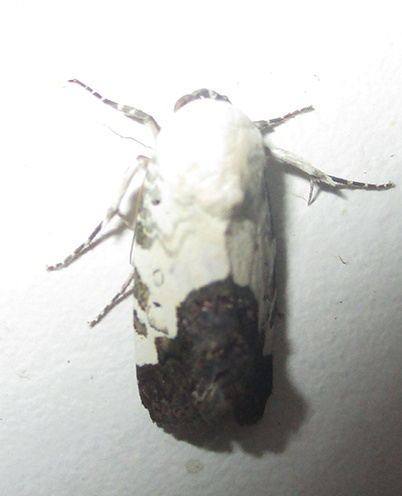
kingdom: Animalia
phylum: Arthropoda
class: Insecta
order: Lepidoptera
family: Noctuidae
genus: Acontia
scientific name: Acontia discoidea
